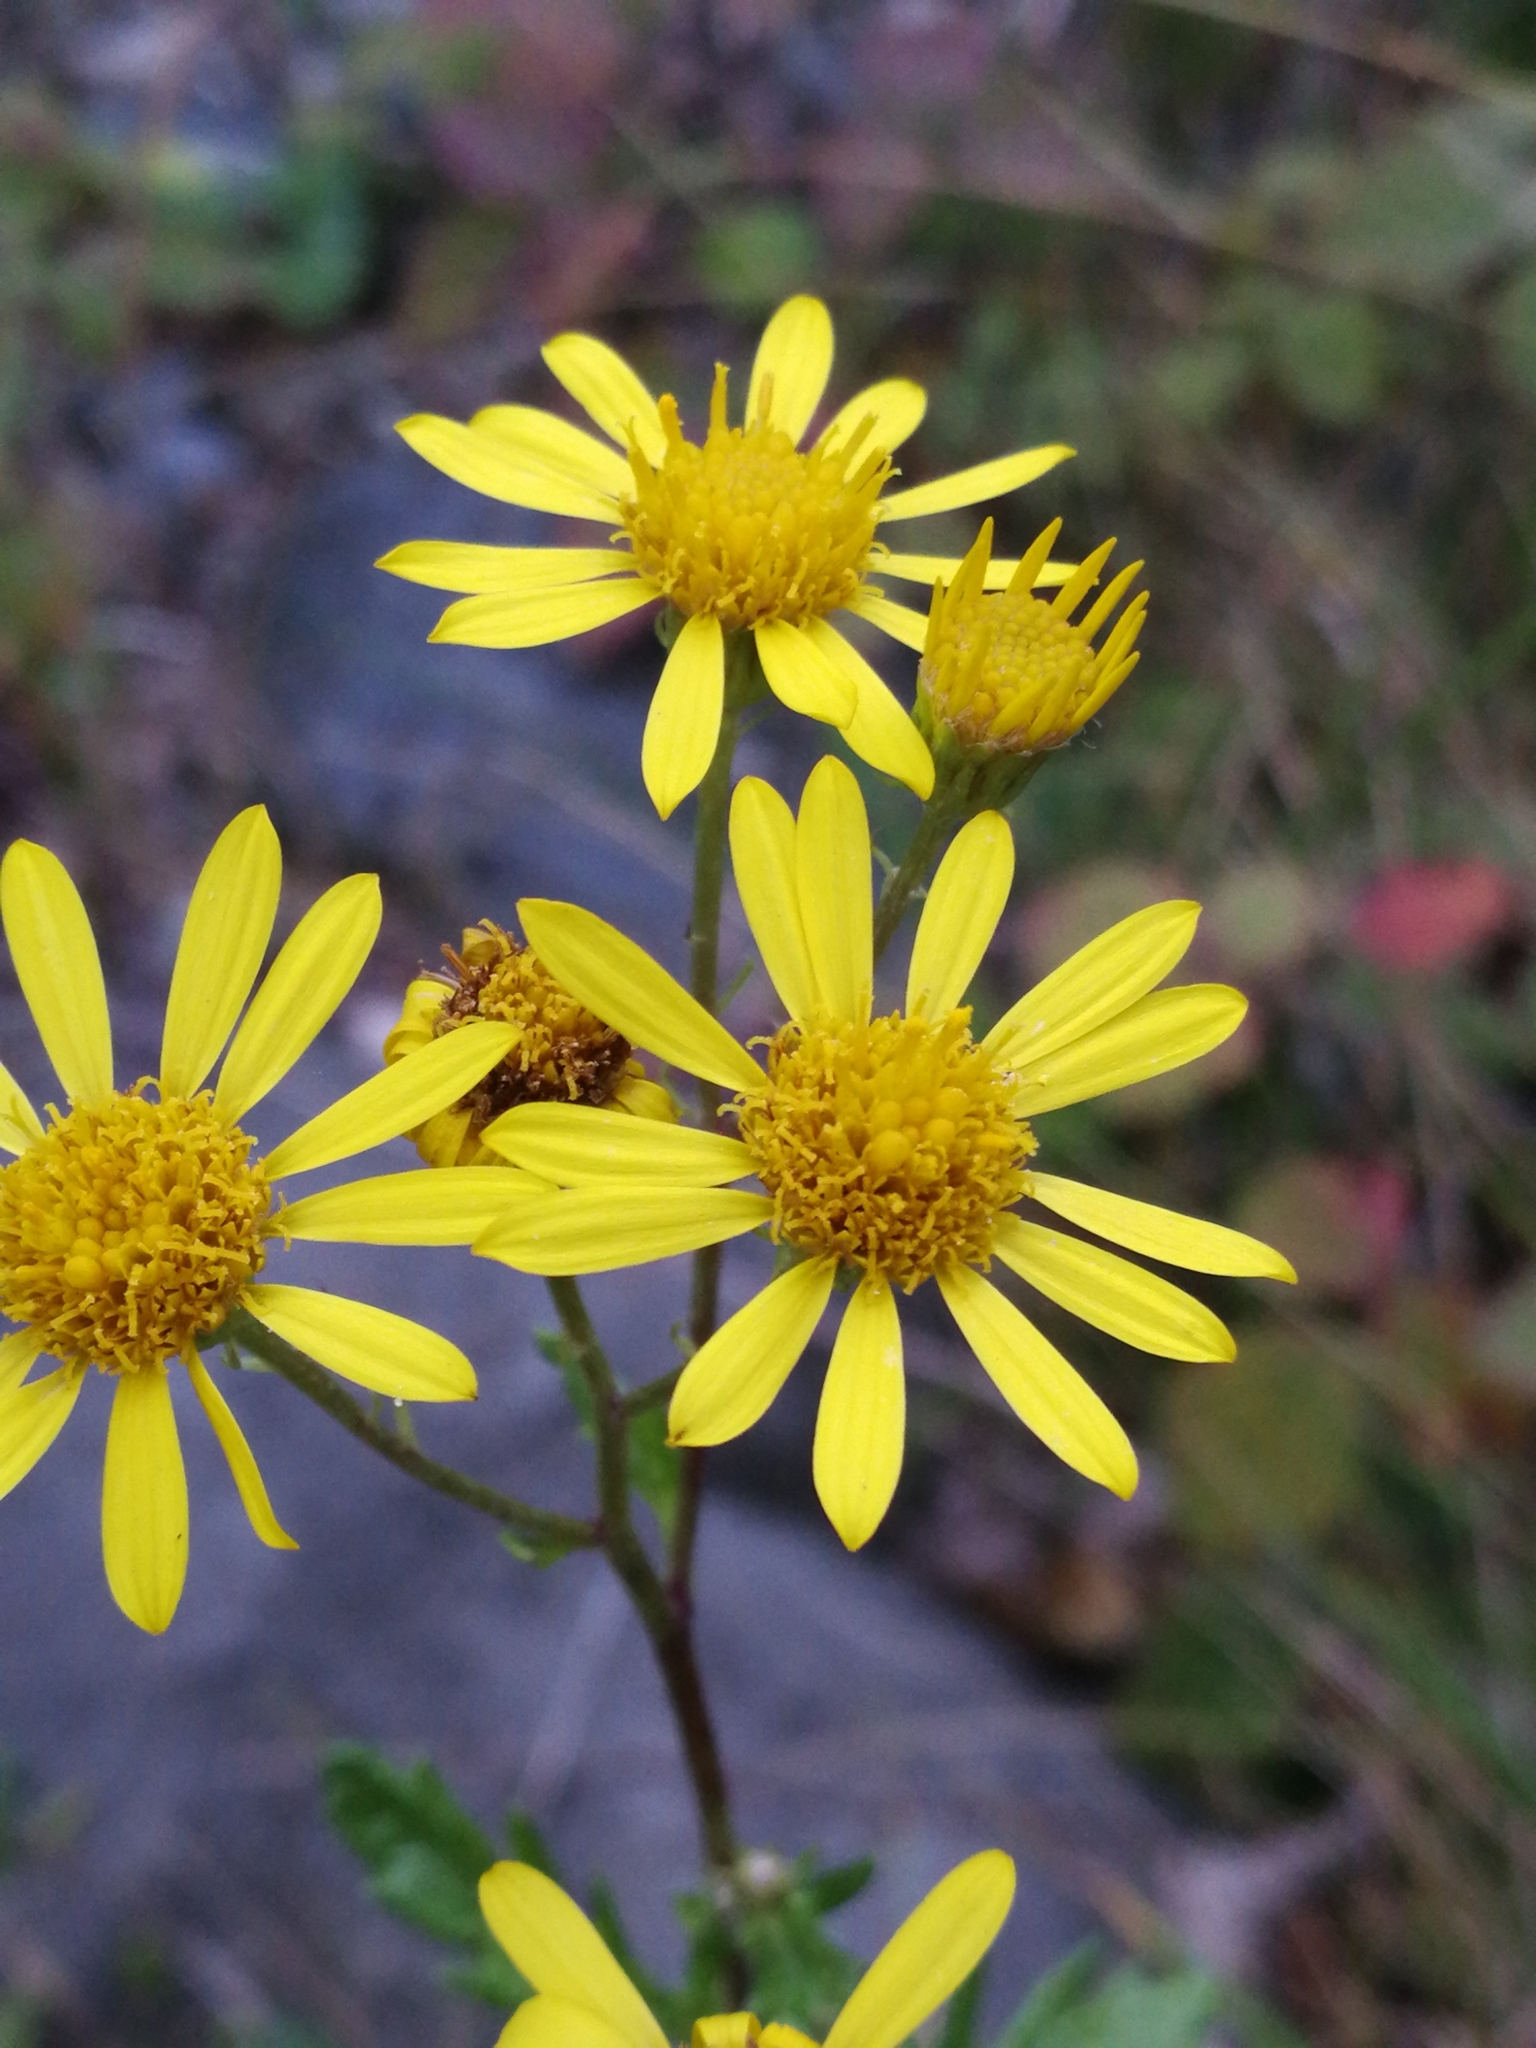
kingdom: Plantae
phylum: Tracheophyta
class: Magnoliopsida
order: Asterales
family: Asteraceae
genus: Jacobaea
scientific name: Jacobaea erucifolia
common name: Hoary ragwort
